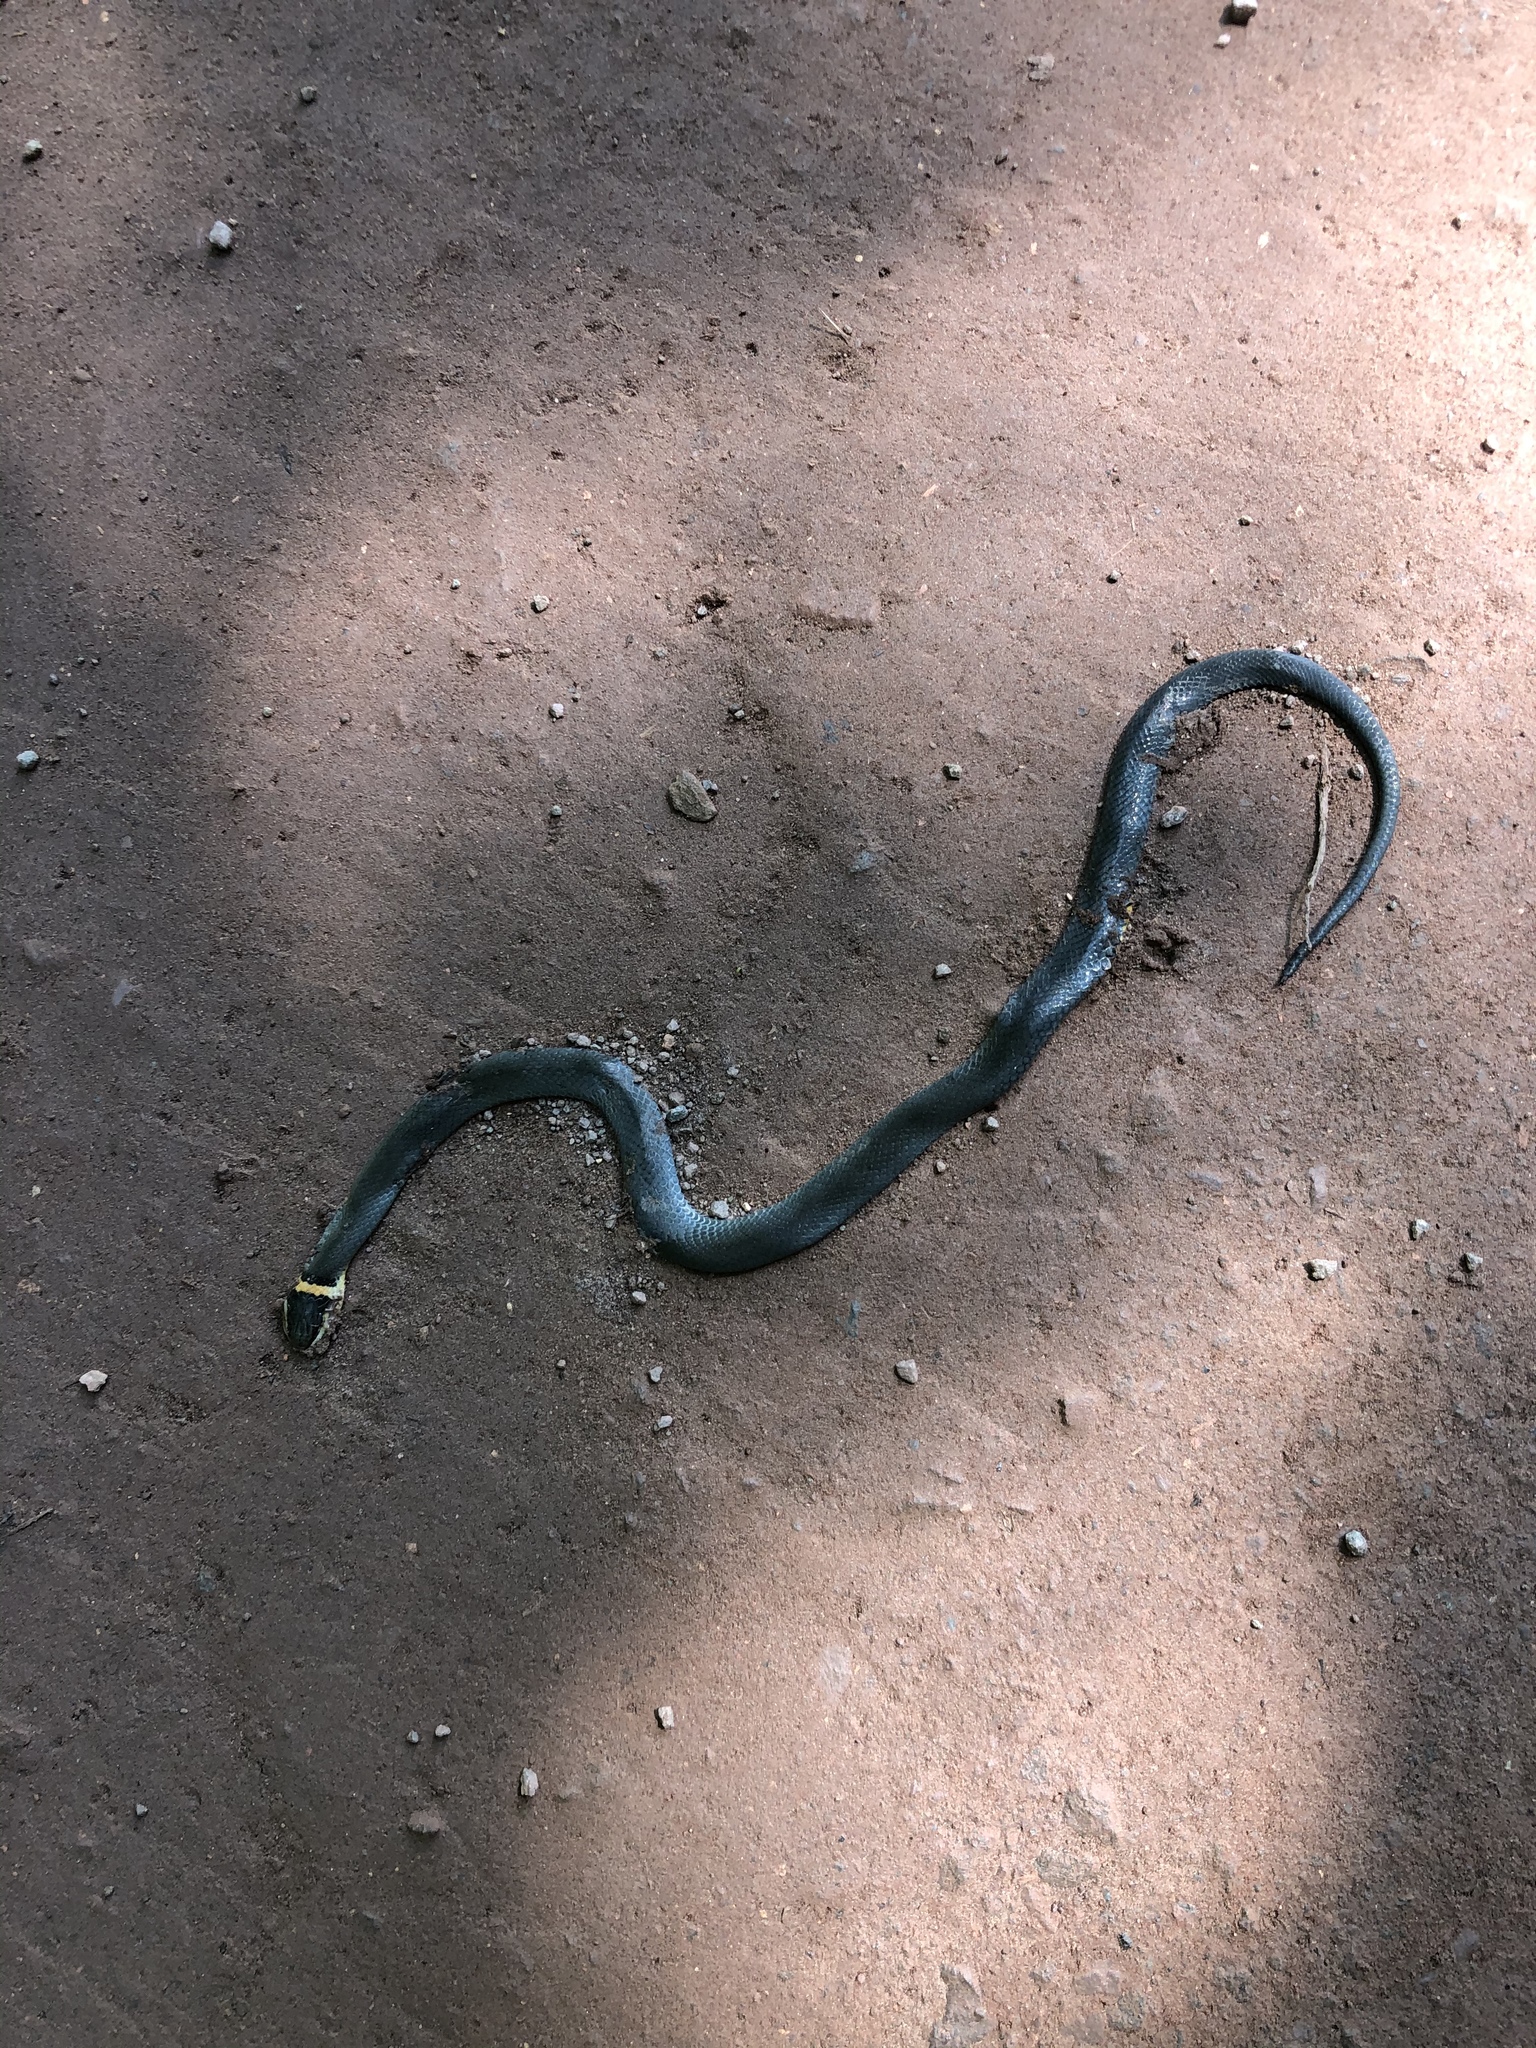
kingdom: Animalia
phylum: Chordata
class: Squamata
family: Colubridae
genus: Diadophis
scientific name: Diadophis punctatus
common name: Ringneck snake
